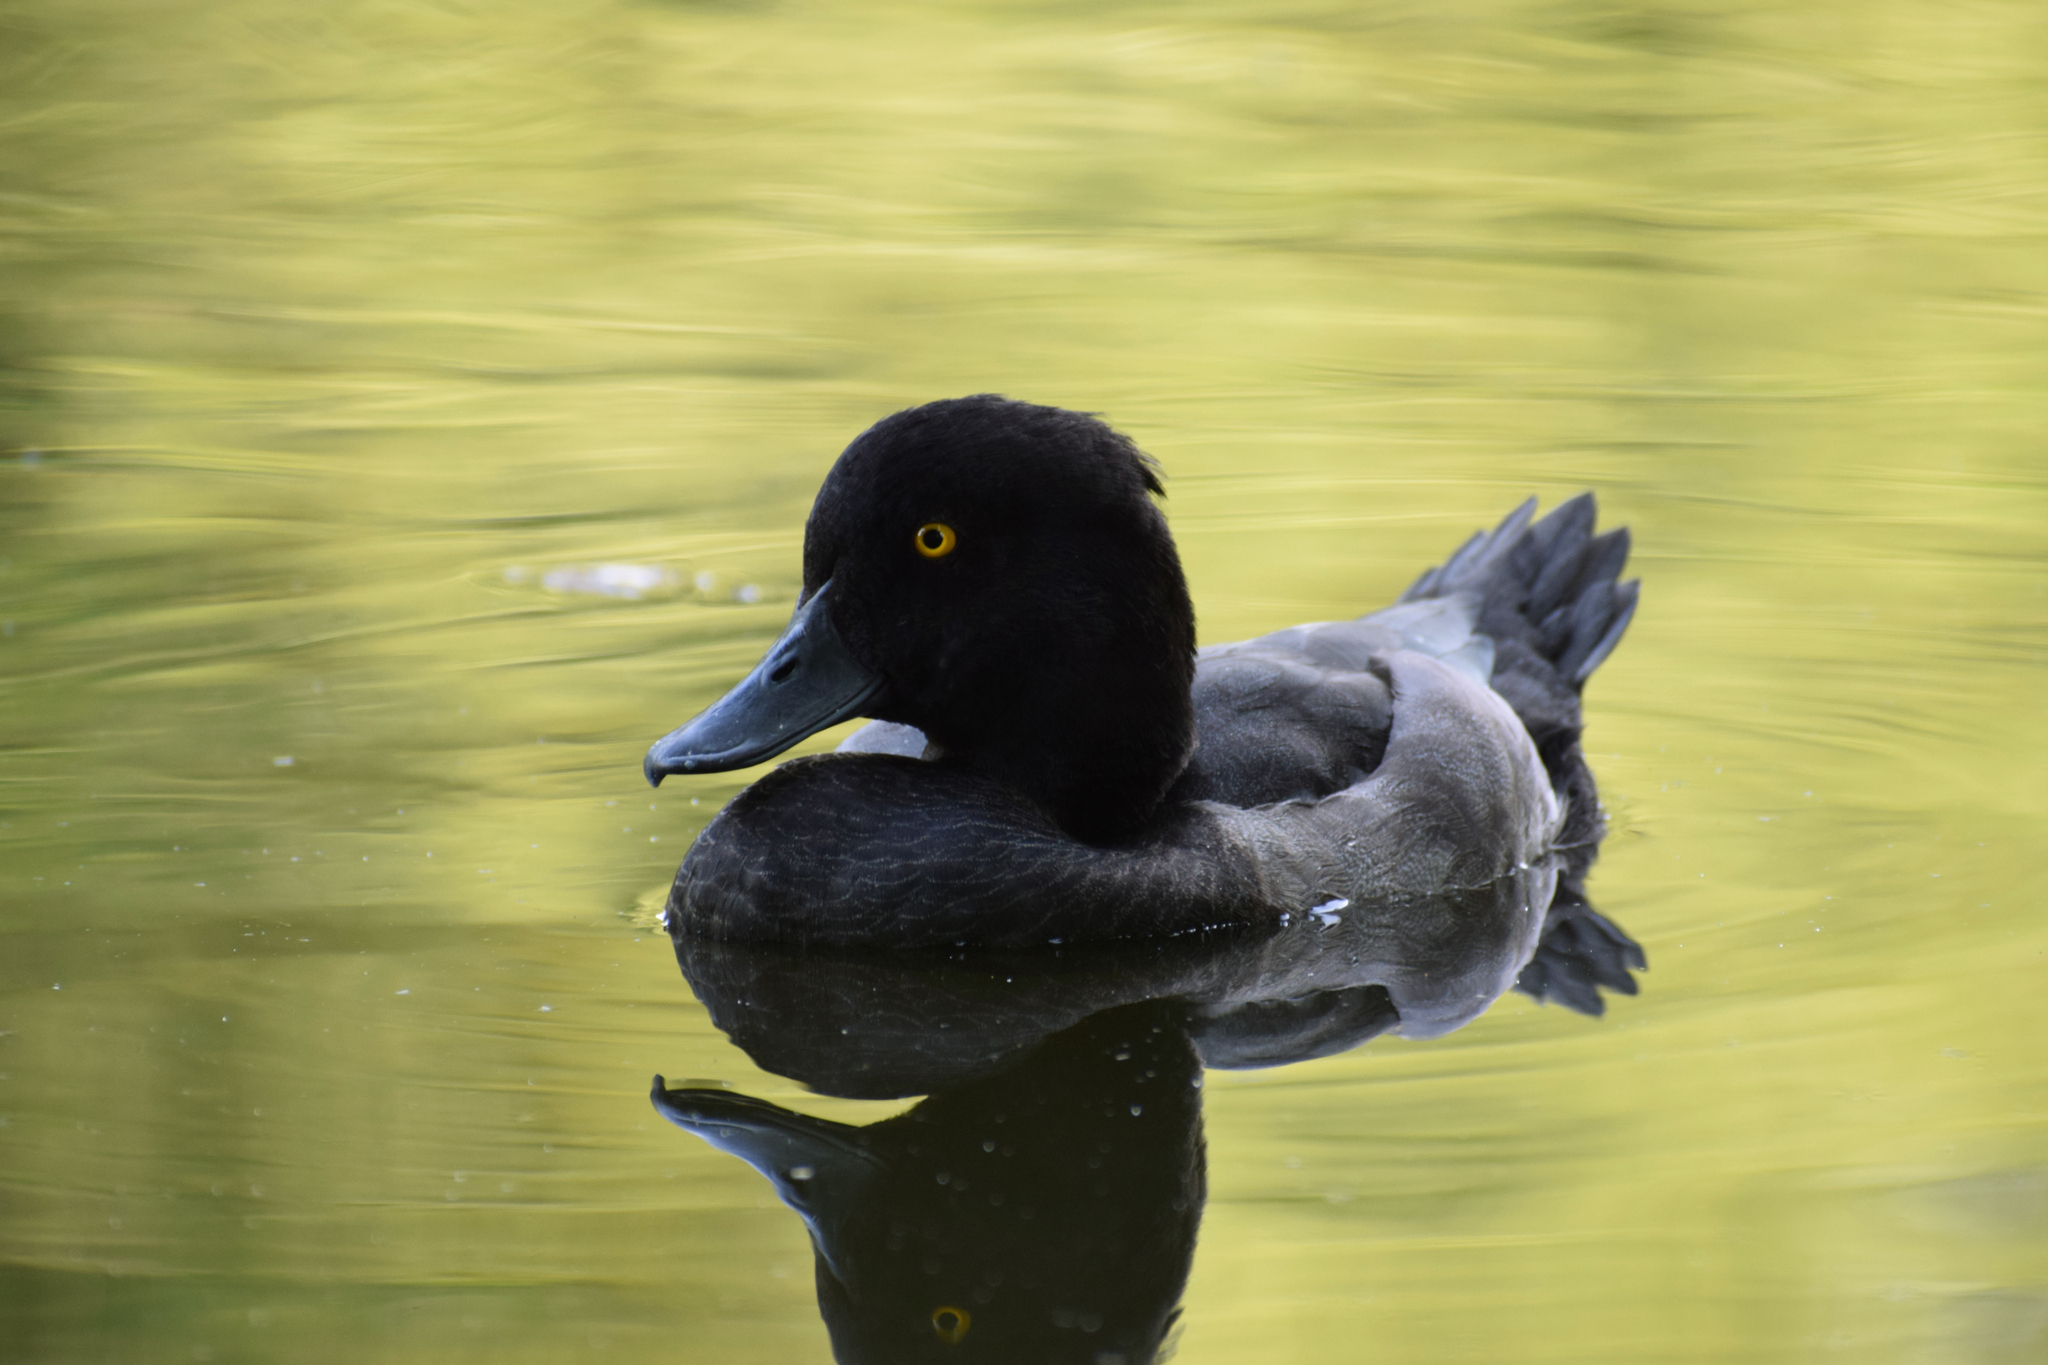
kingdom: Animalia
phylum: Chordata
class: Aves
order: Anseriformes
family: Anatidae
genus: Aythya
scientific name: Aythya fuligula
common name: Tufted duck
